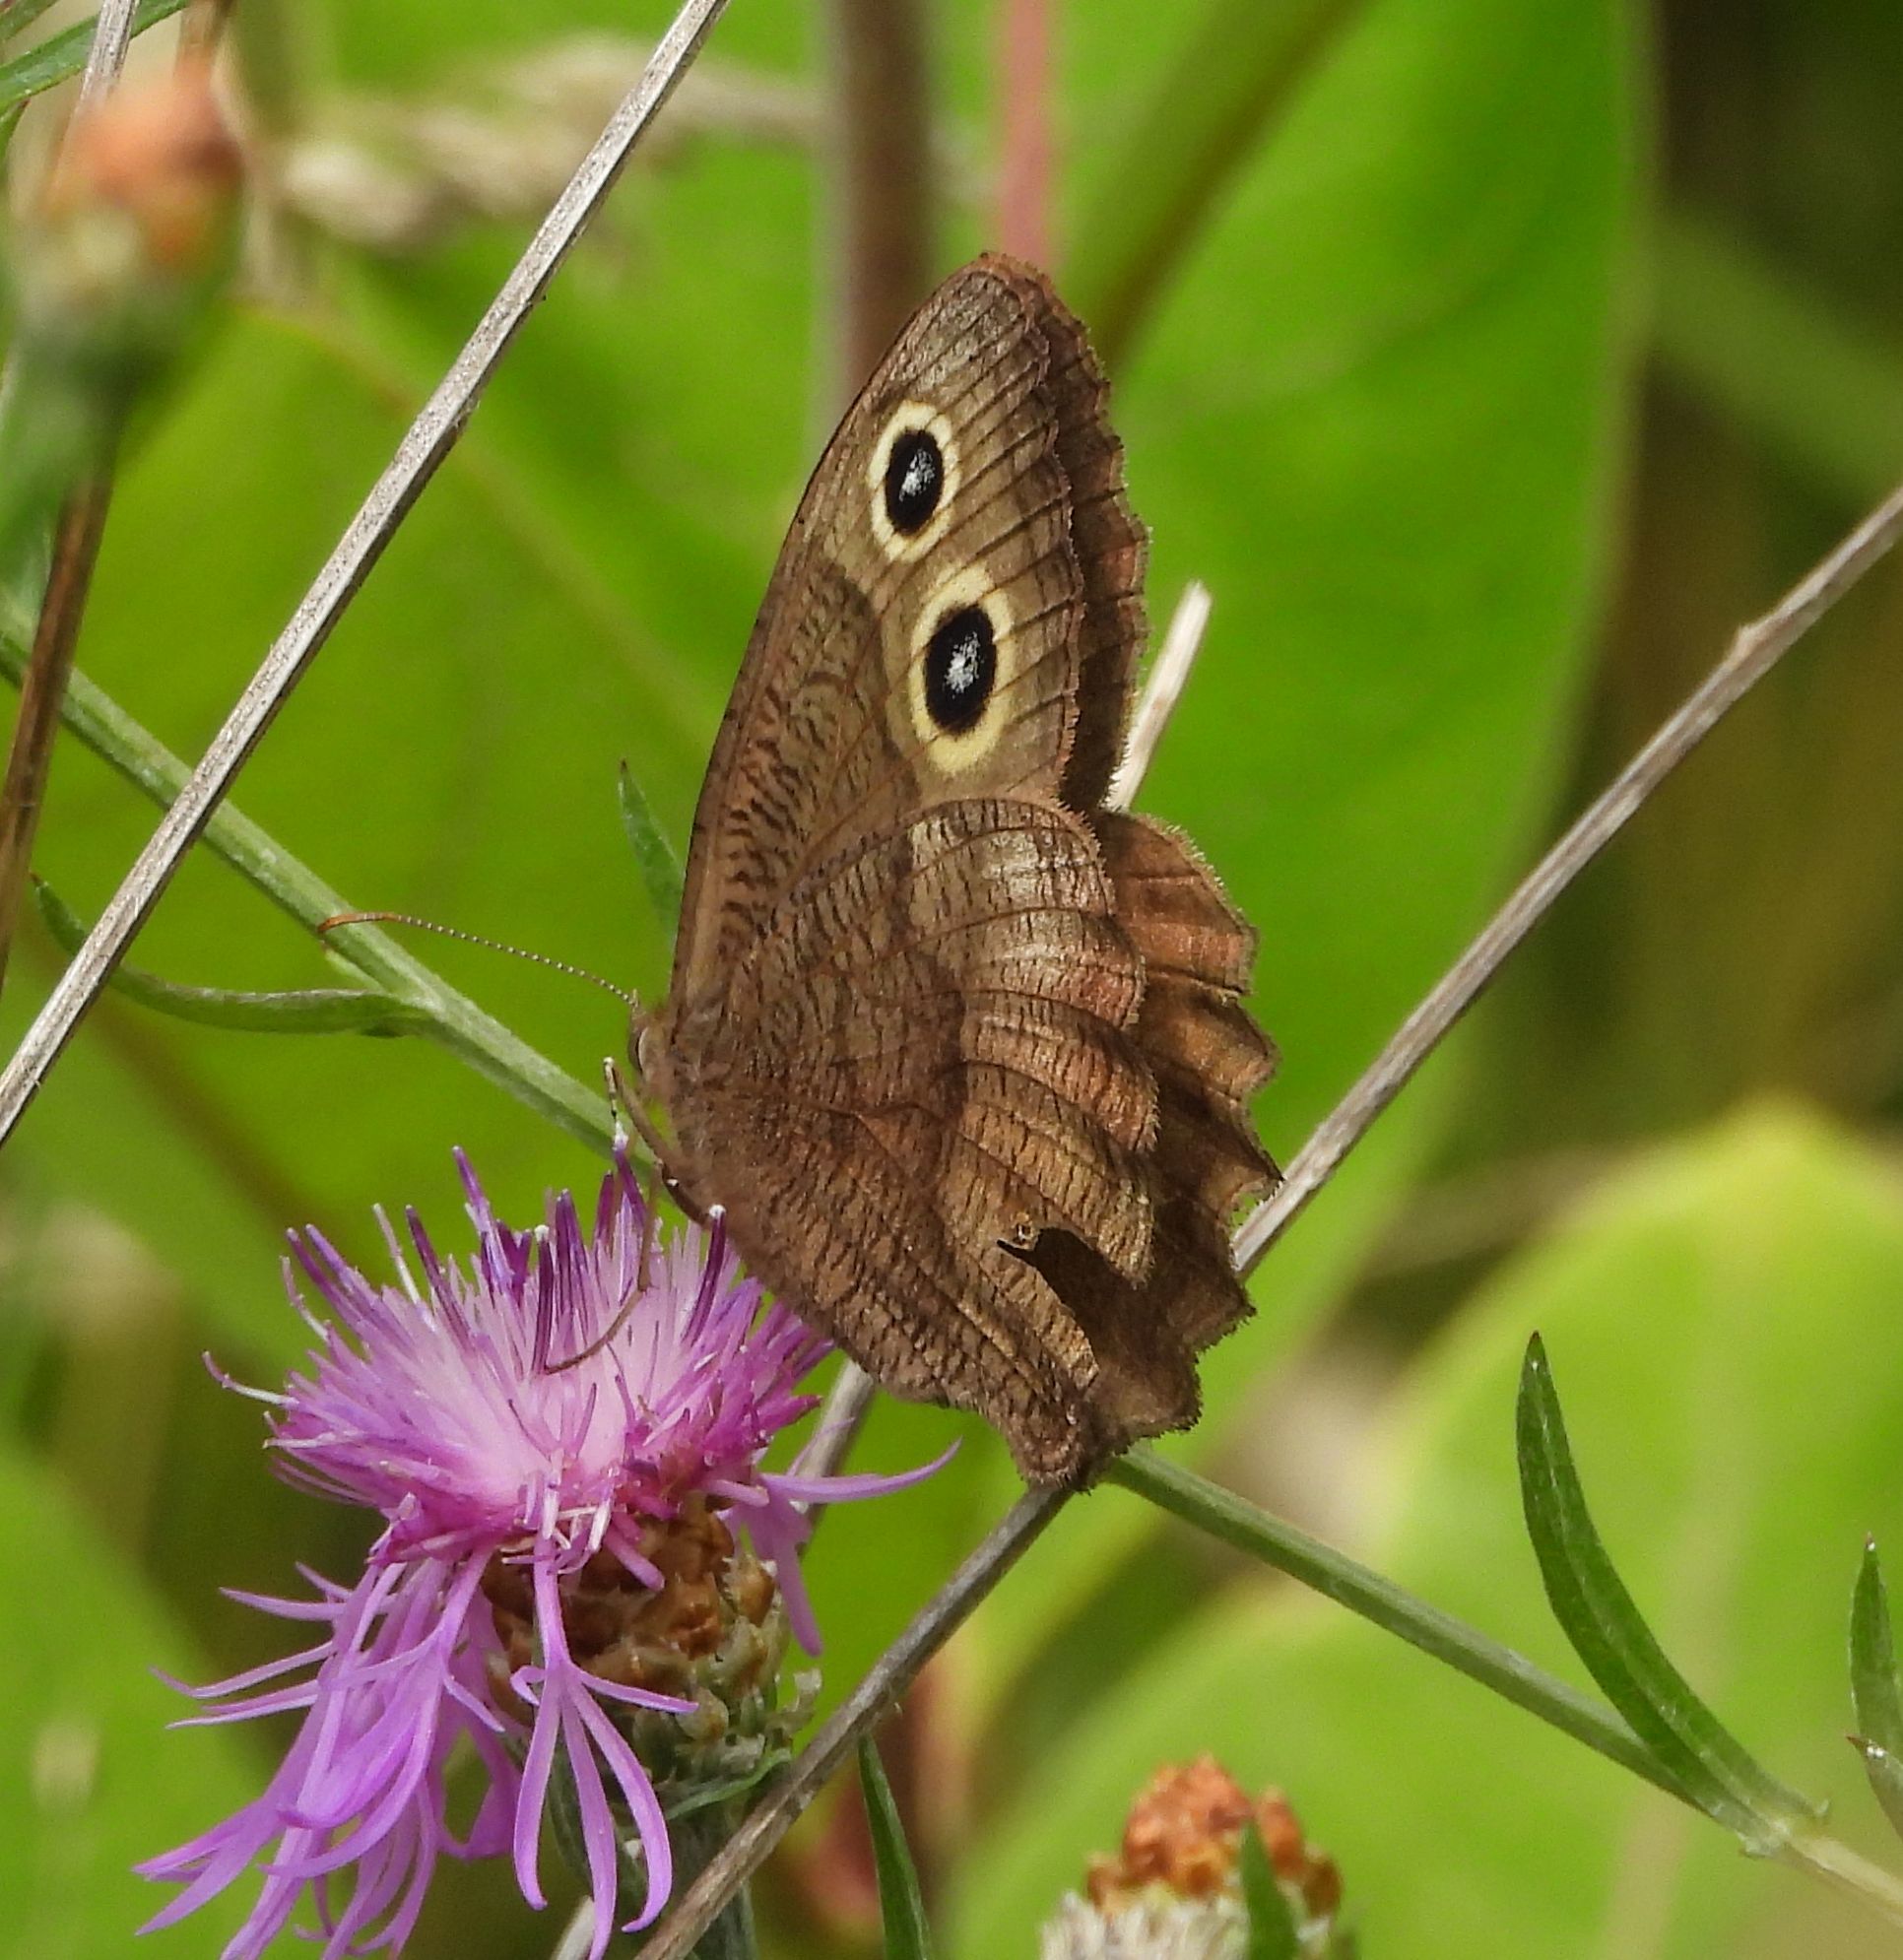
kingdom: Animalia
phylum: Arthropoda
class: Insecta
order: Lepidoptera
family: Nymphalidae
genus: Cercyonis
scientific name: Cercyonis pegala
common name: Common wood-nymph
